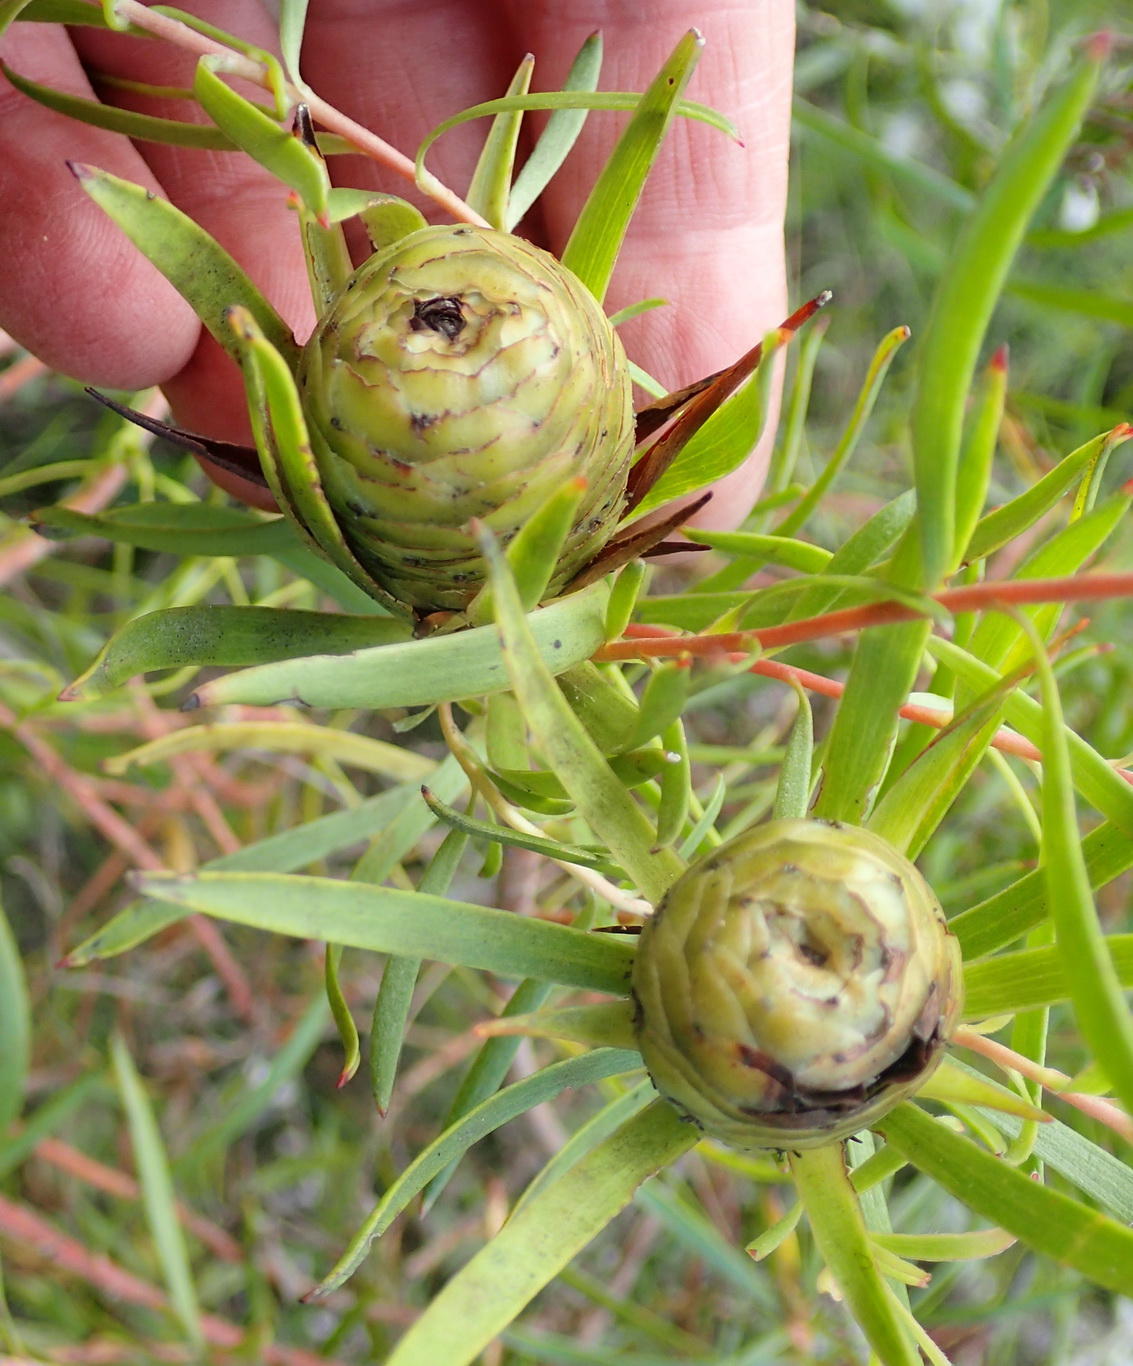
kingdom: Plantae
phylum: Tracheophyta
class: Magnoliopsida
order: Proteales
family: Proteaceae
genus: Leucadendron
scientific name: Leucadendron salignum
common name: Common sunshine conebush
